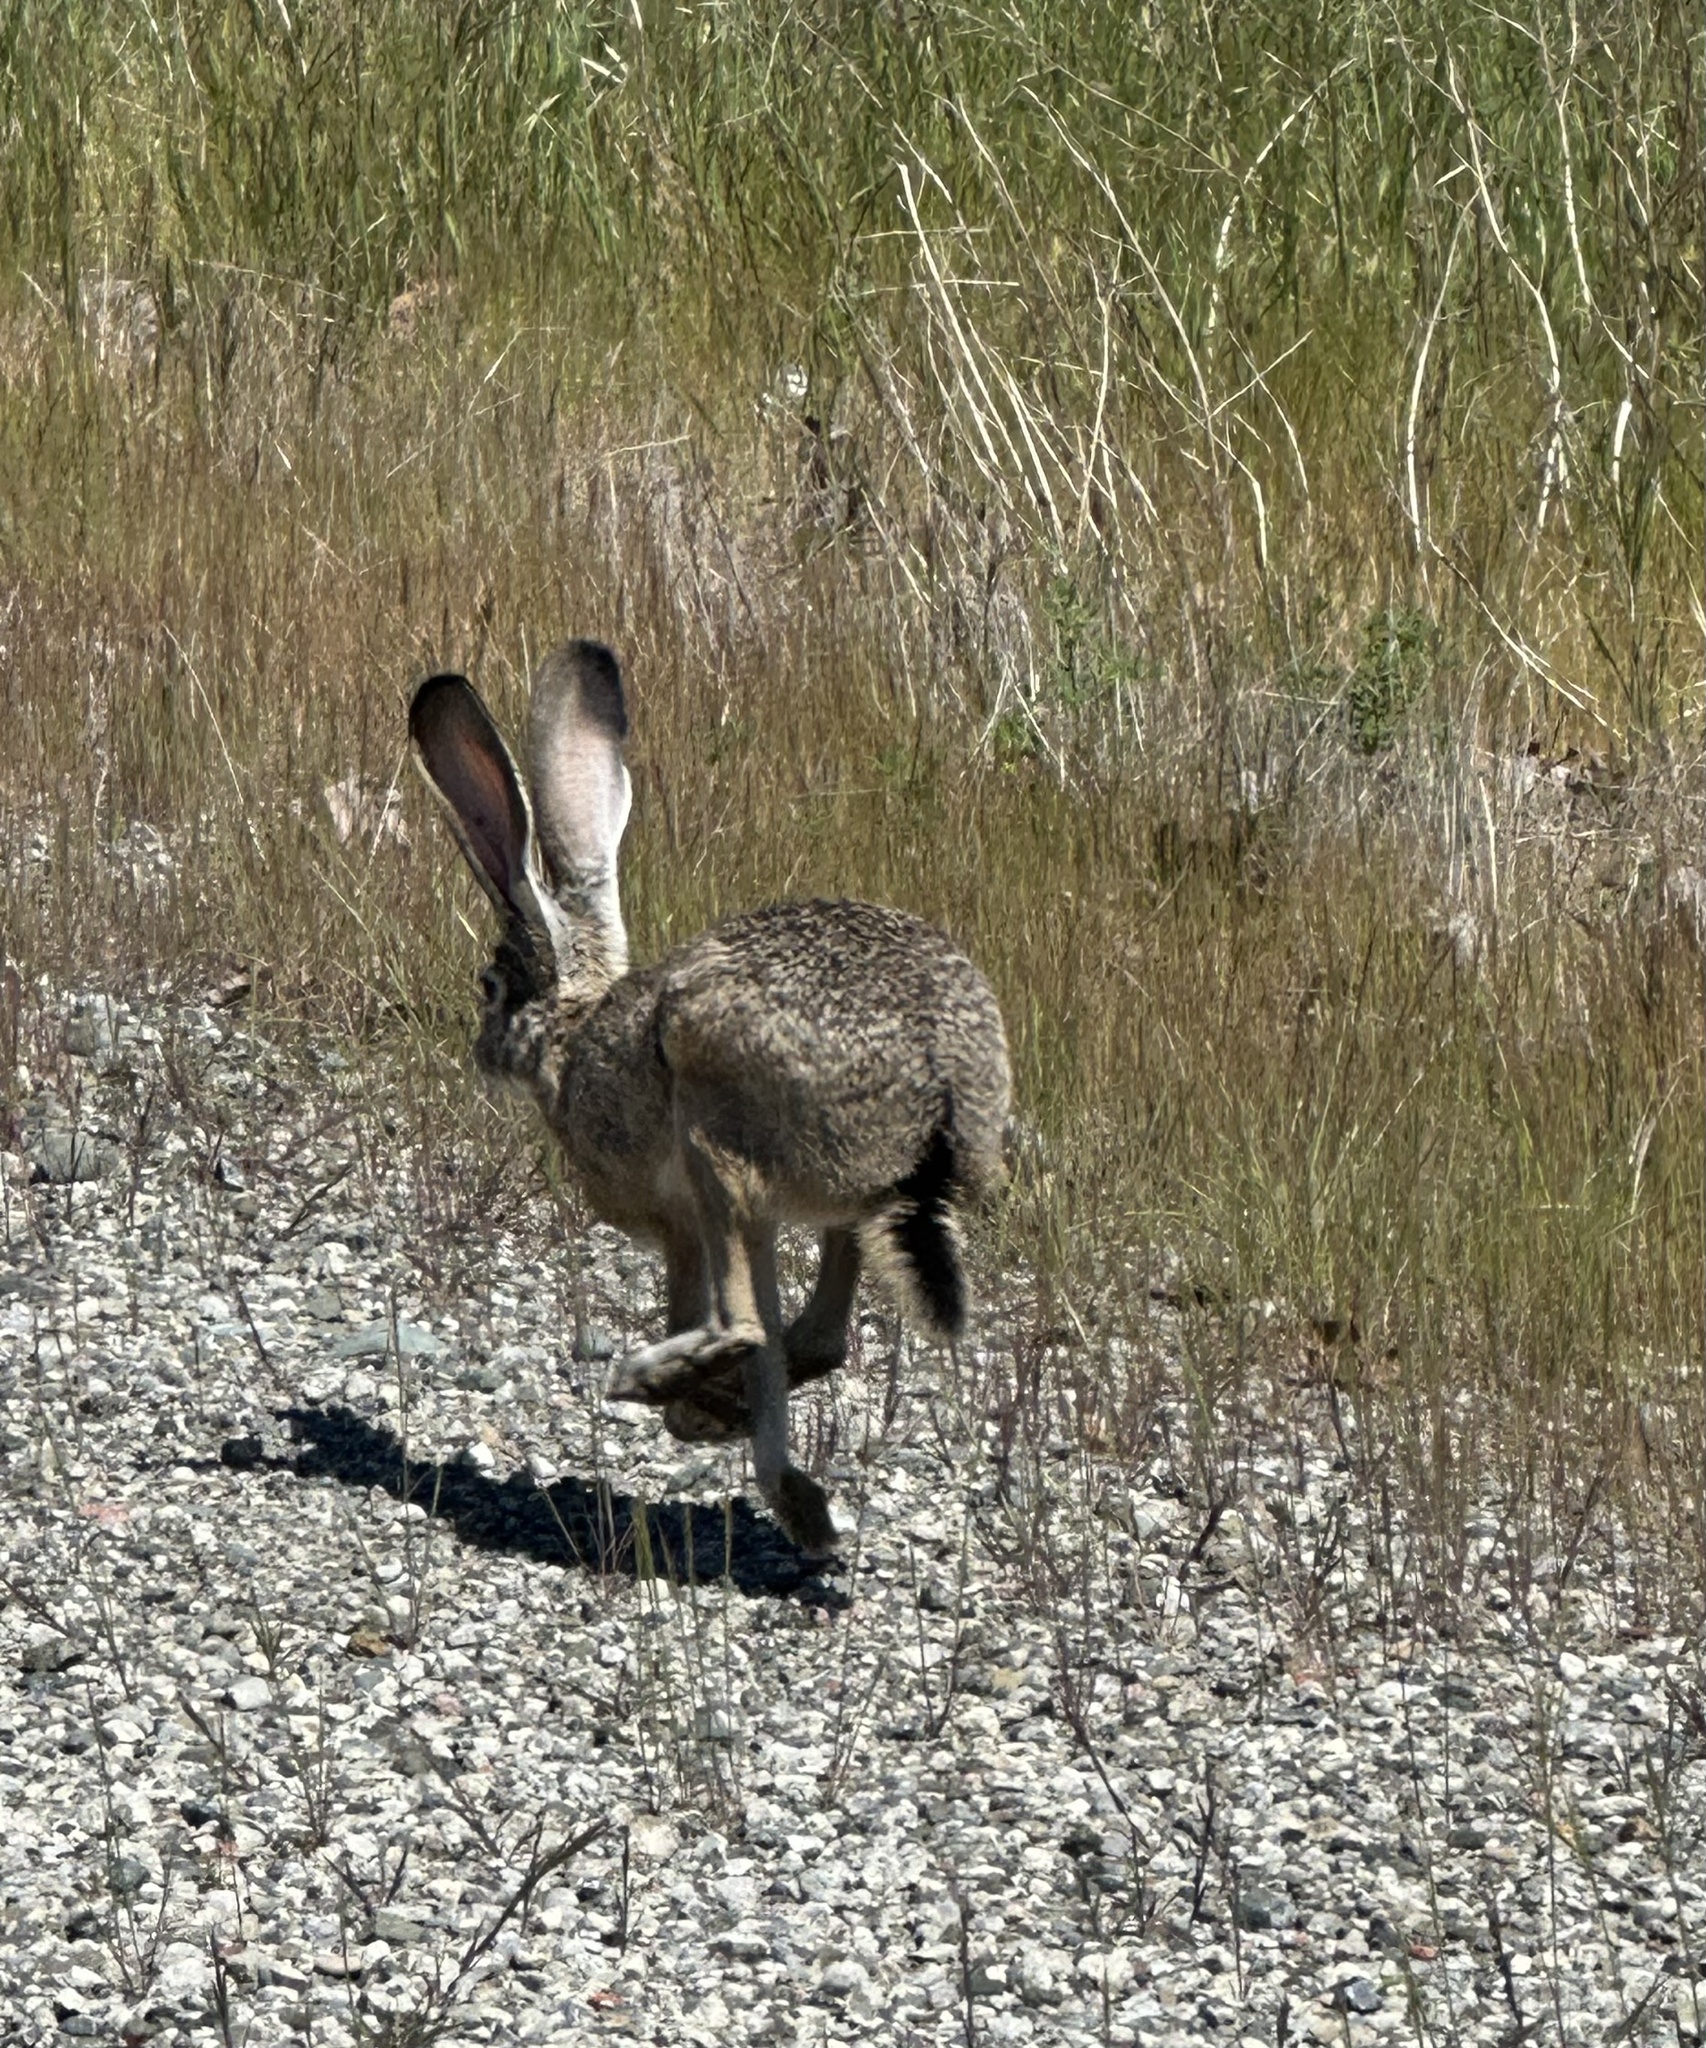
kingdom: Animalia
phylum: Chordata
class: Mammalia
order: Lagomorpha
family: Leporidae
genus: Lepus
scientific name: Lepus californicus
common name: Black-tailed jackrabbit
